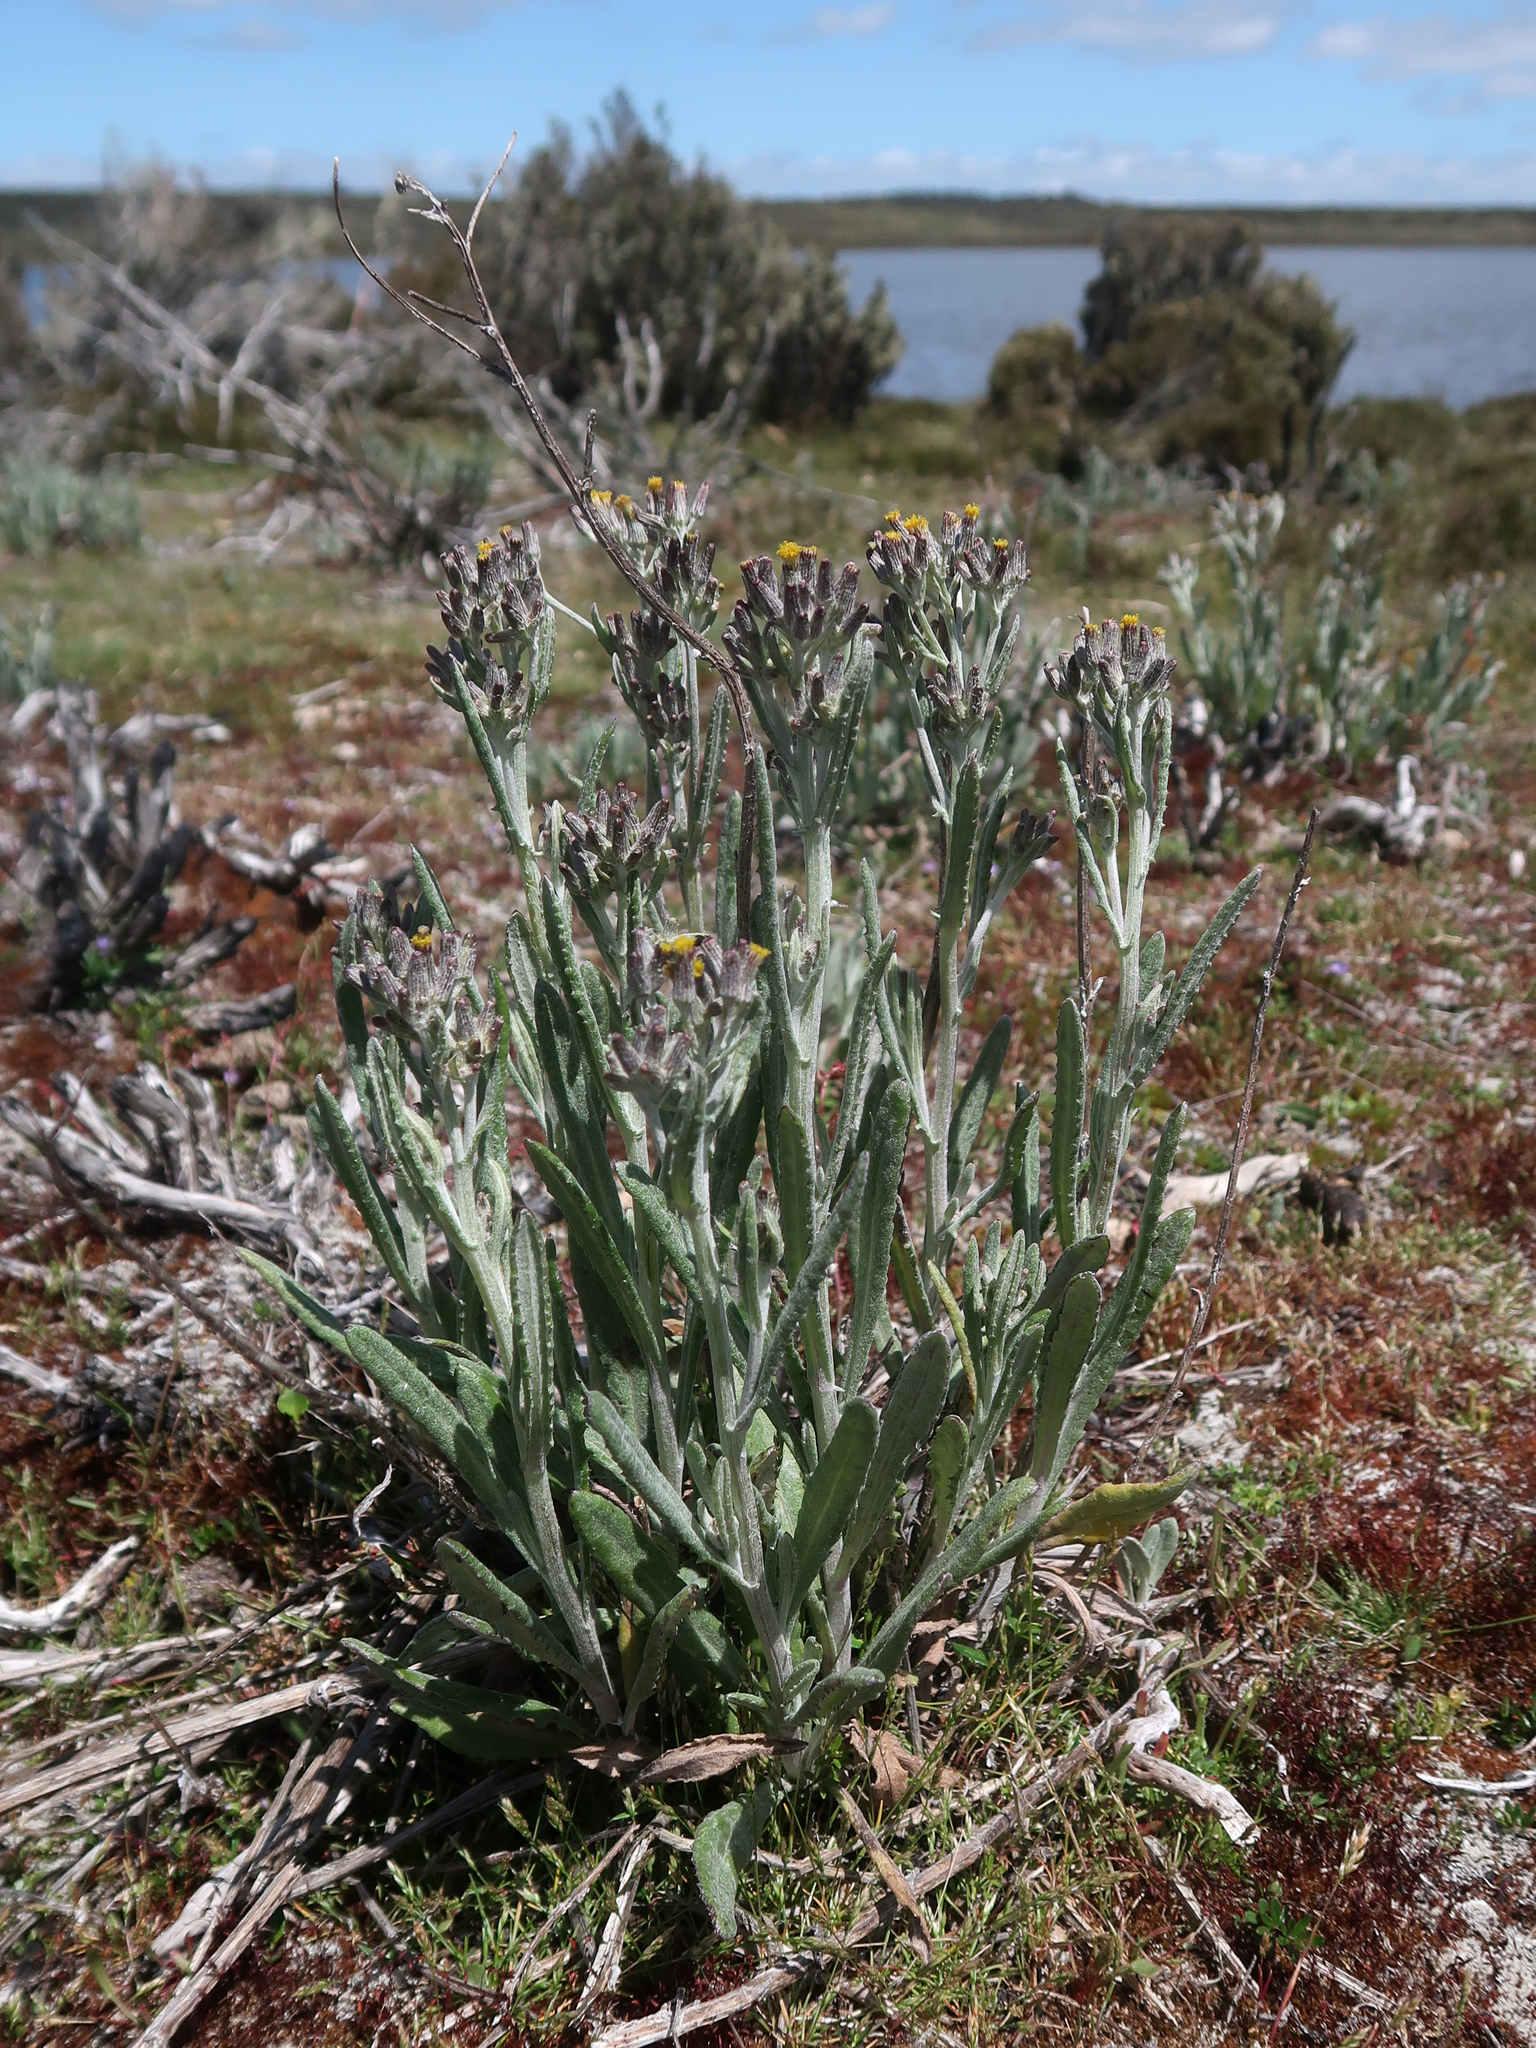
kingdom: Plantae
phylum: Tracheophyta
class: Magnoliopsida
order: Asterales
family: Asteraceae
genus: Senecio
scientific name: Senecio gunnii
